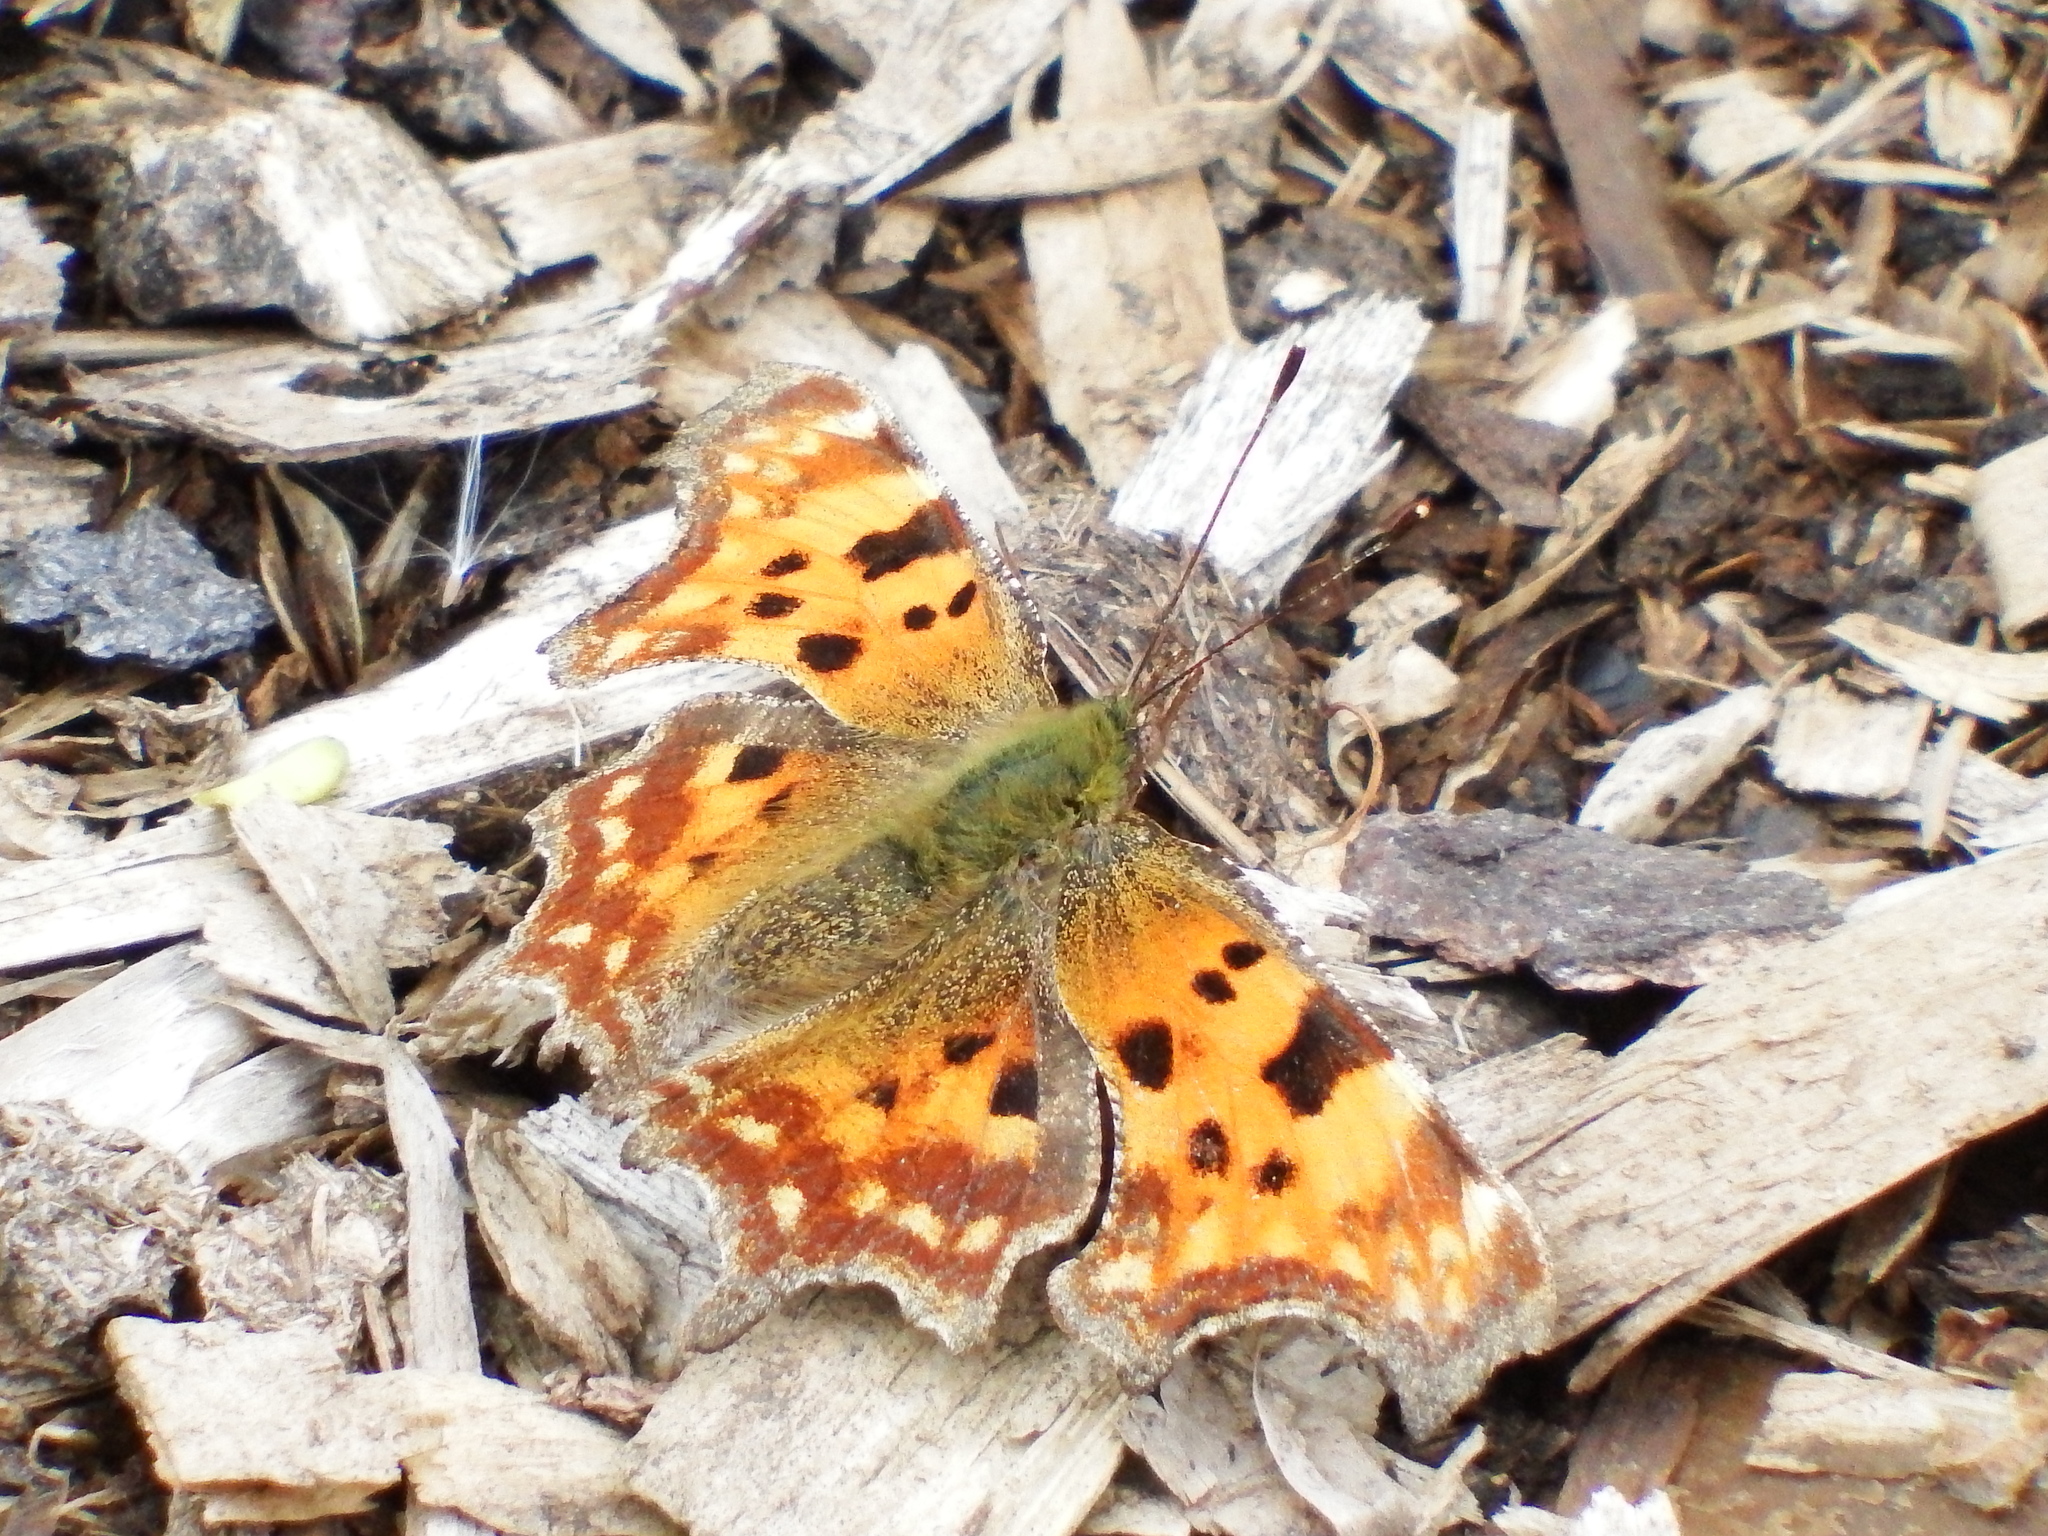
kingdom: Animalia
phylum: Arthropoda
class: Insecta
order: Lepidoptera
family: Nymphalidae
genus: Polygonia
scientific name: Polygonia c-album
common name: Comma
